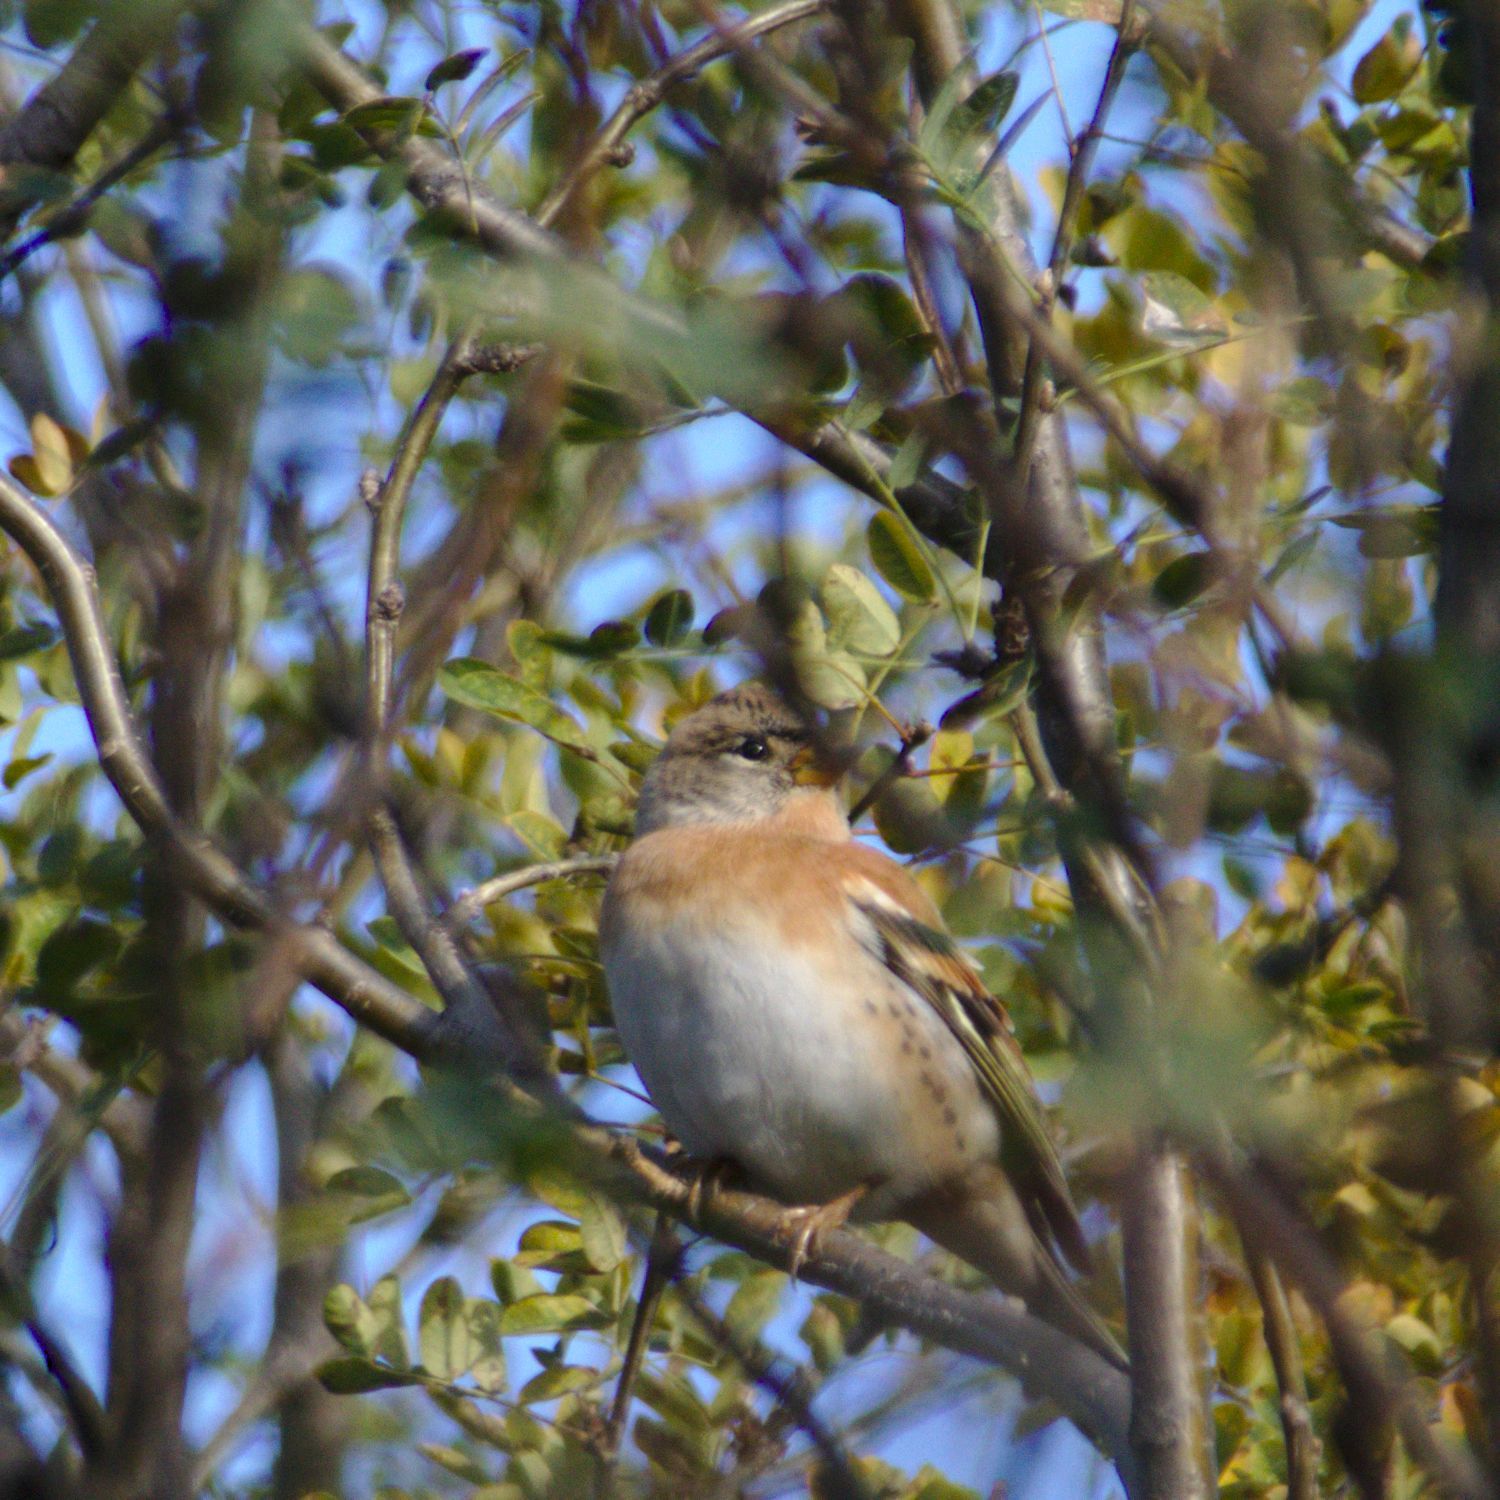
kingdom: Animalia
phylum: Chordata
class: Aves
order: Passeriformes
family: Fringillidae
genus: Fringilla
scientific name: Fringilla montifringilla
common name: Brambling
